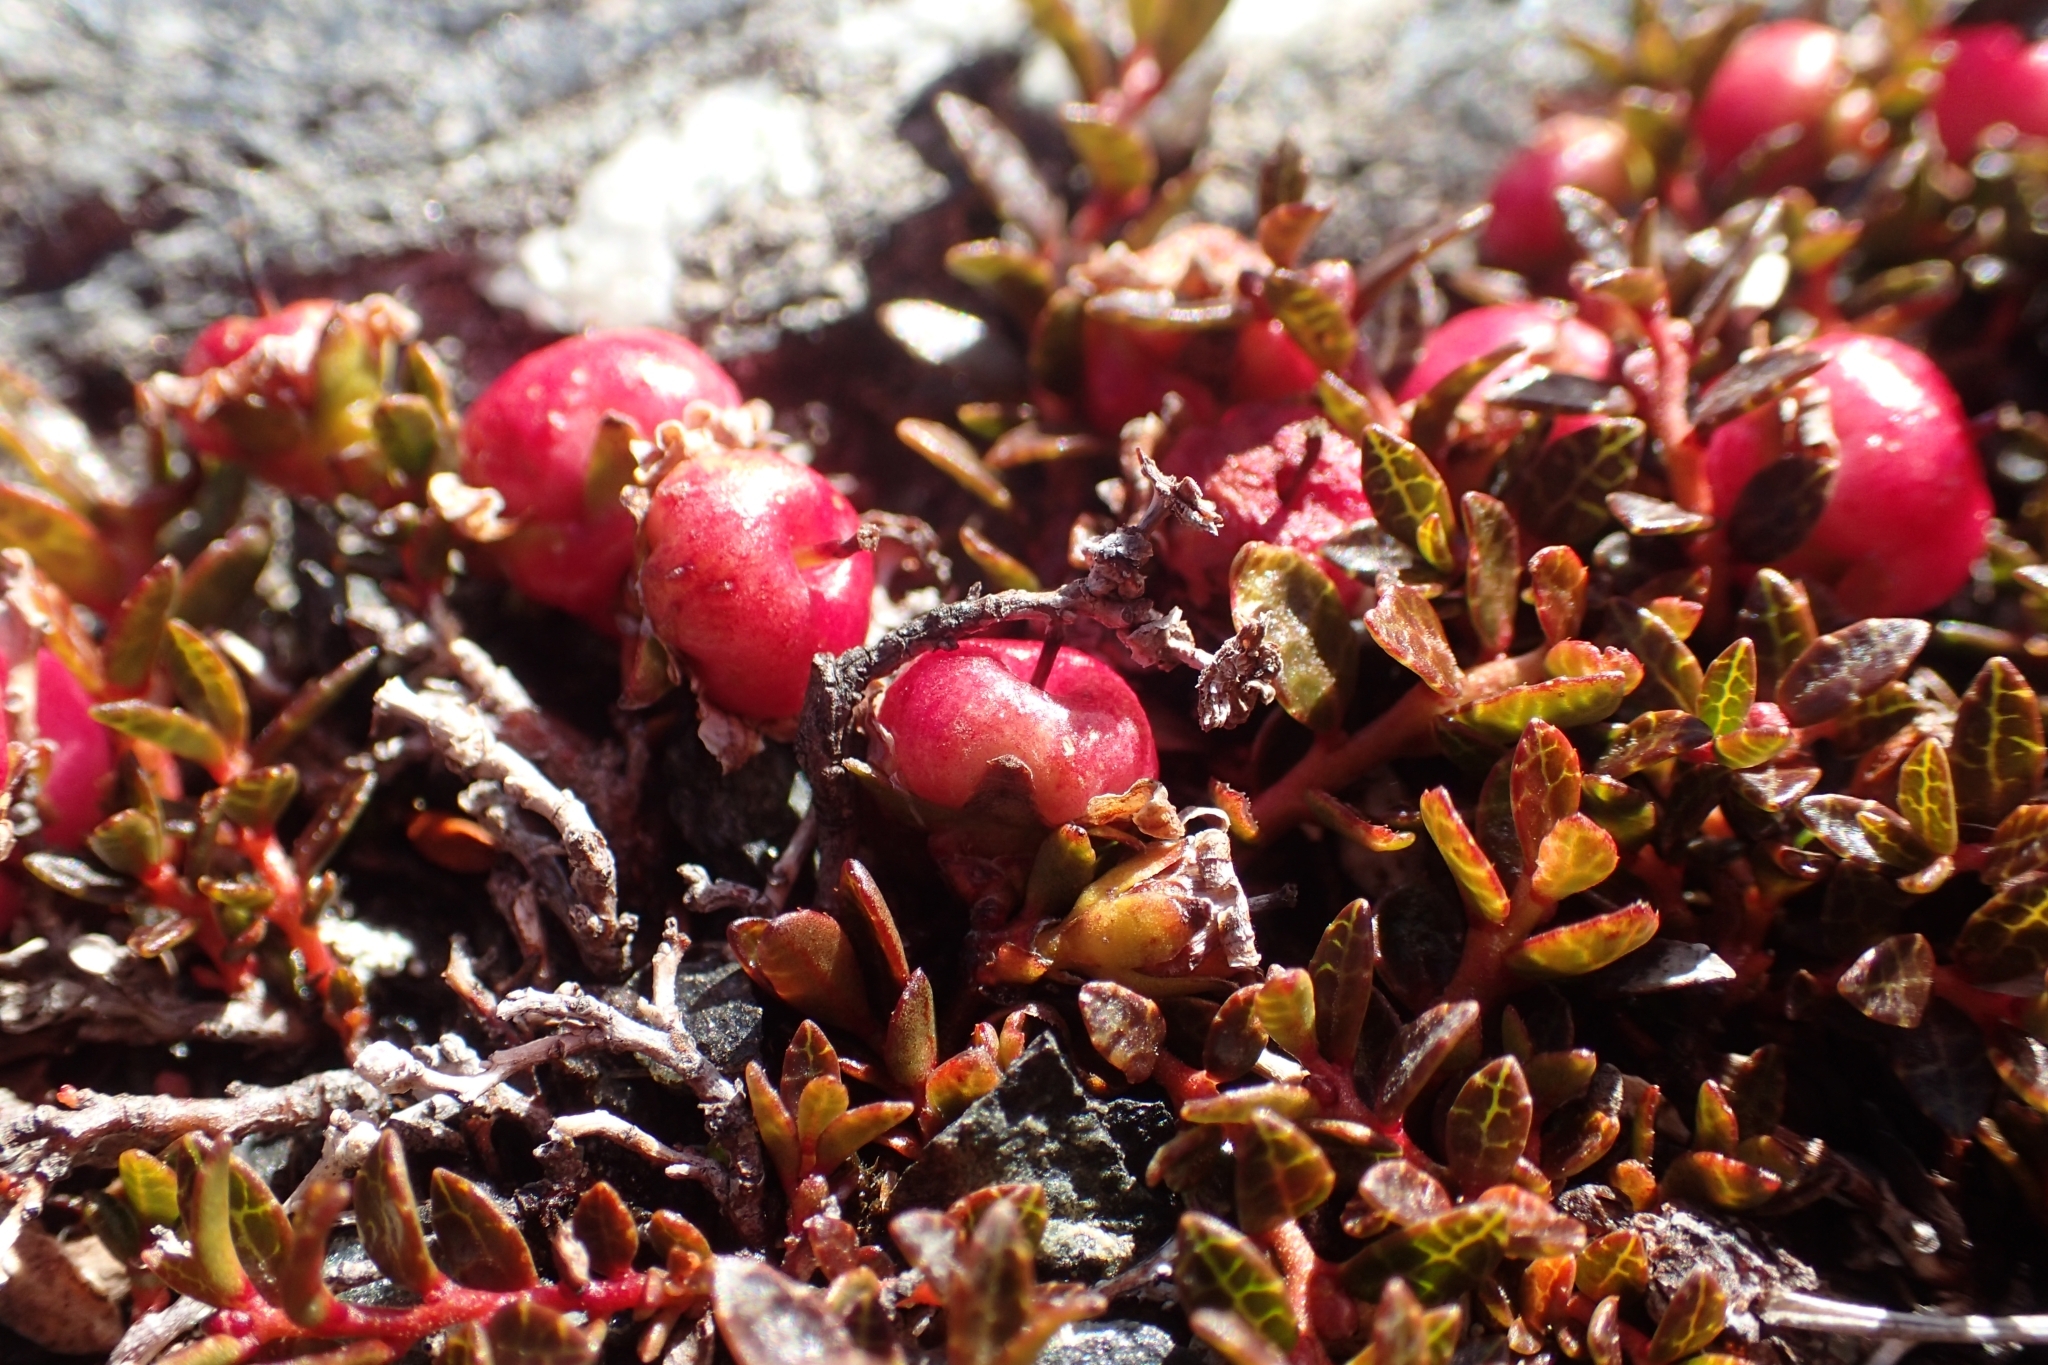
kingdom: Plantae
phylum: Tracheophyta
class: Magnoliopsida
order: Ericales
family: Ericaceae
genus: Gaultheria
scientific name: Gaultheria parvula
